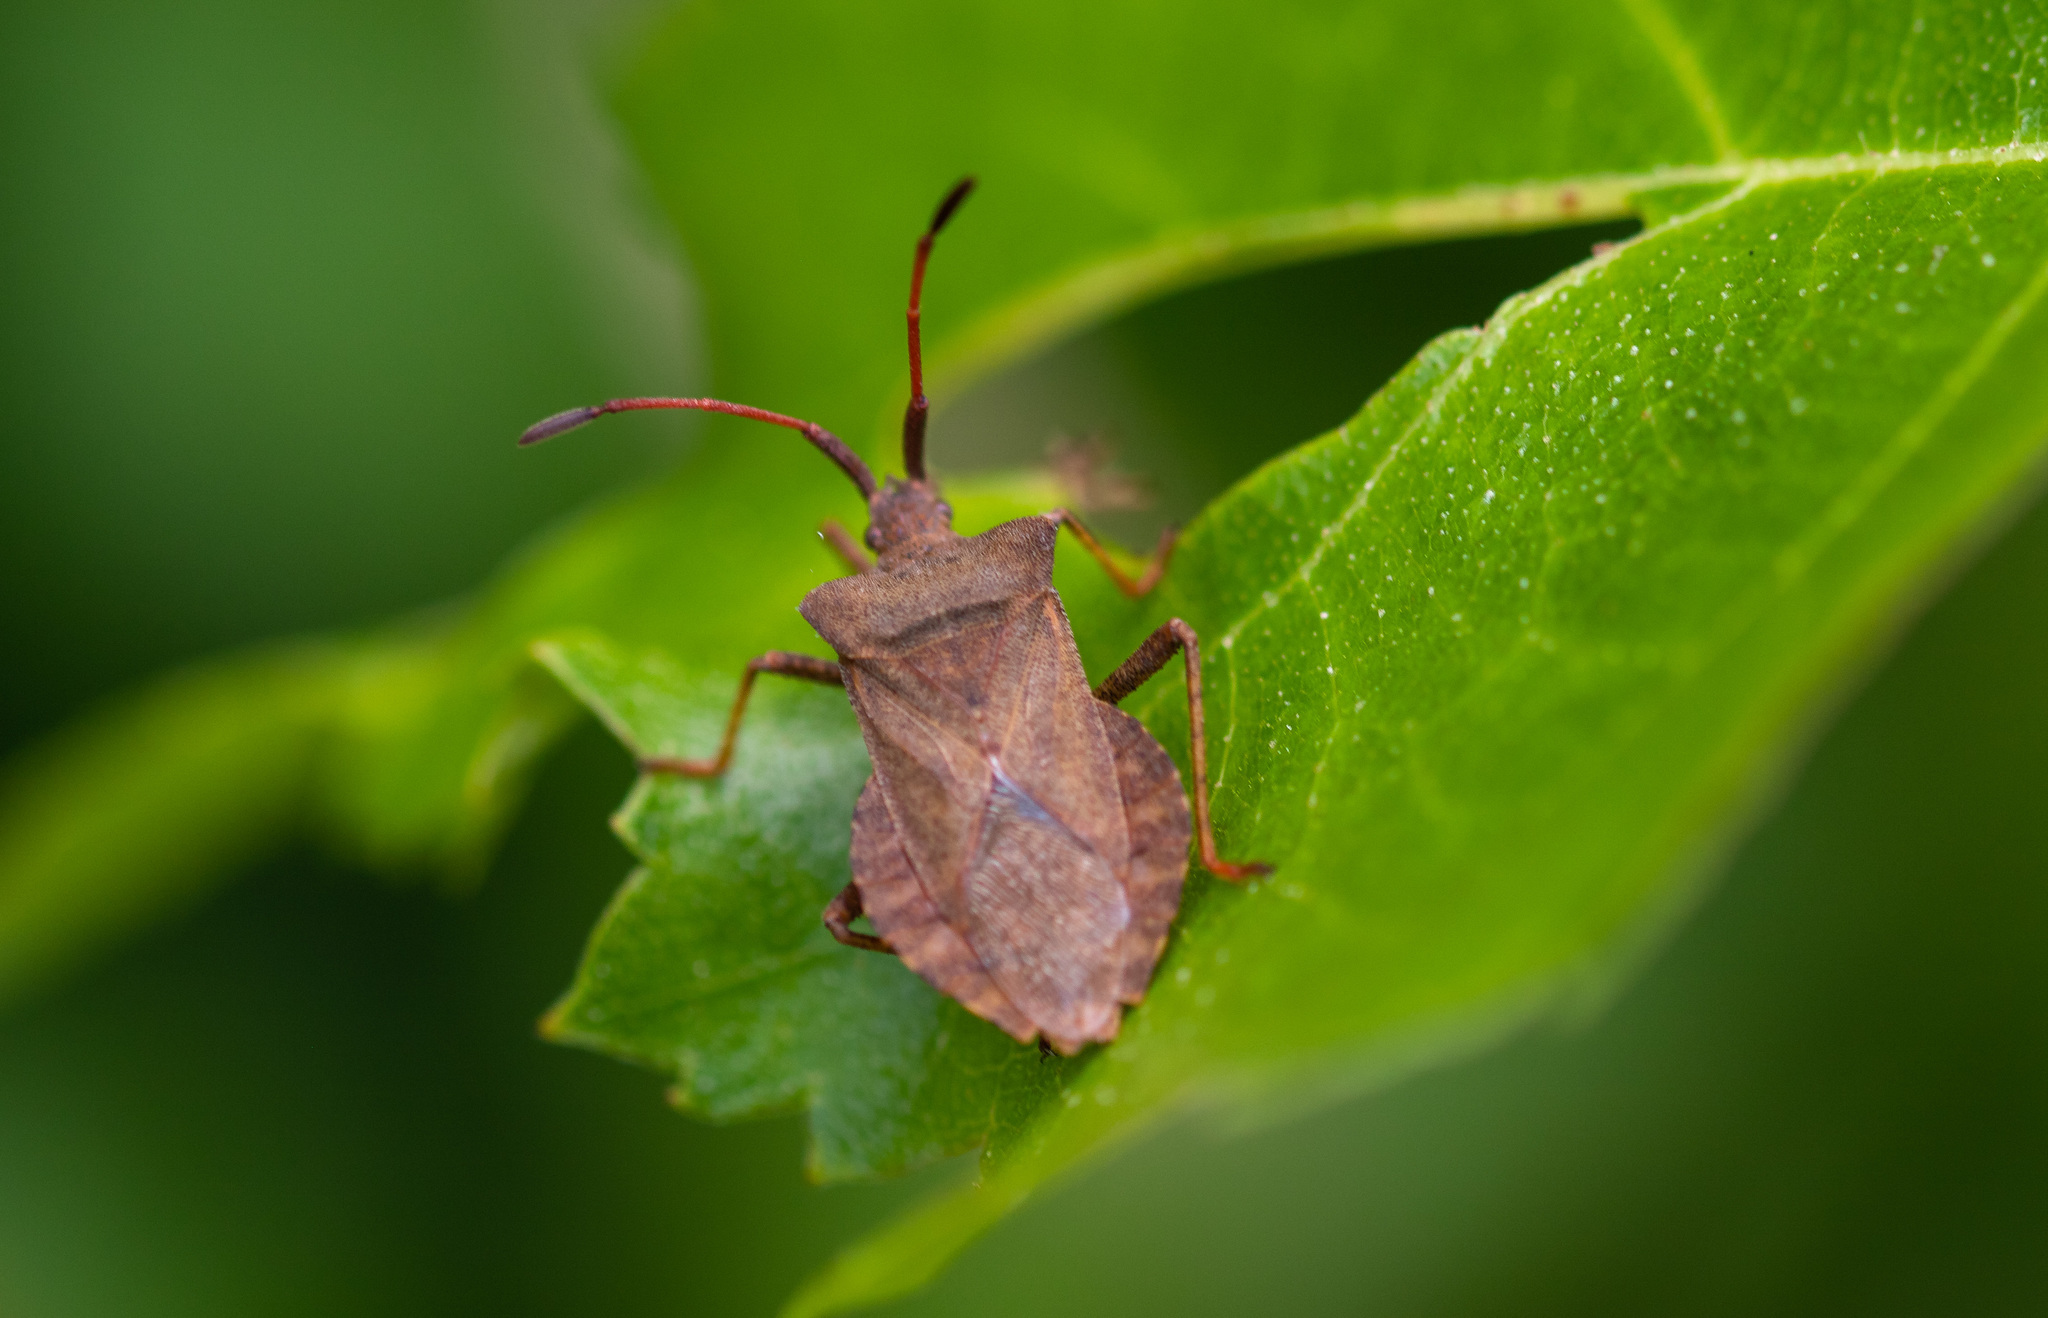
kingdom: Animalia
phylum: Arthropoda
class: Insecta
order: Hemiptera
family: Coreidae
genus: Coreus
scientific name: Coreus marginatus
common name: Dock bug
